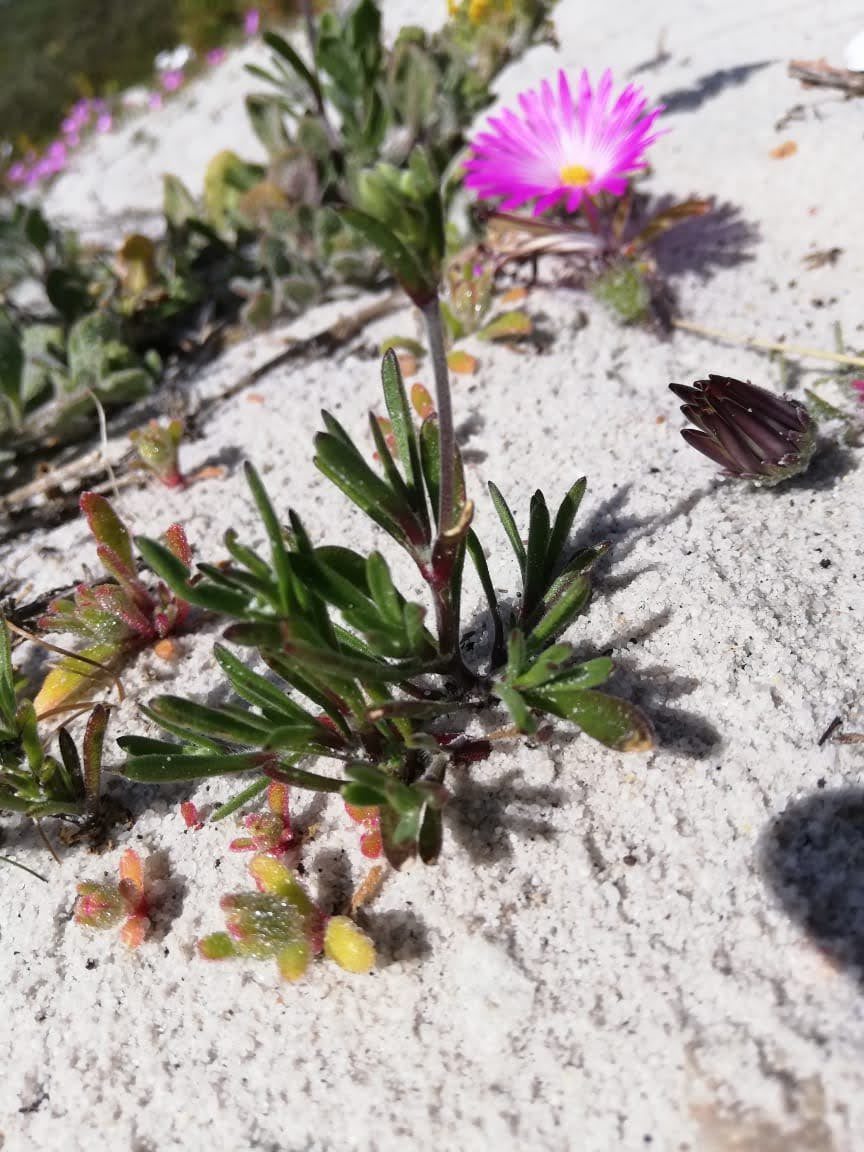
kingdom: Plantae
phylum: Tracheophyta
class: Magnoliopsida
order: Caryophyllales
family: Caryophyllaceae
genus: Silene
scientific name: Silene aethiopica
